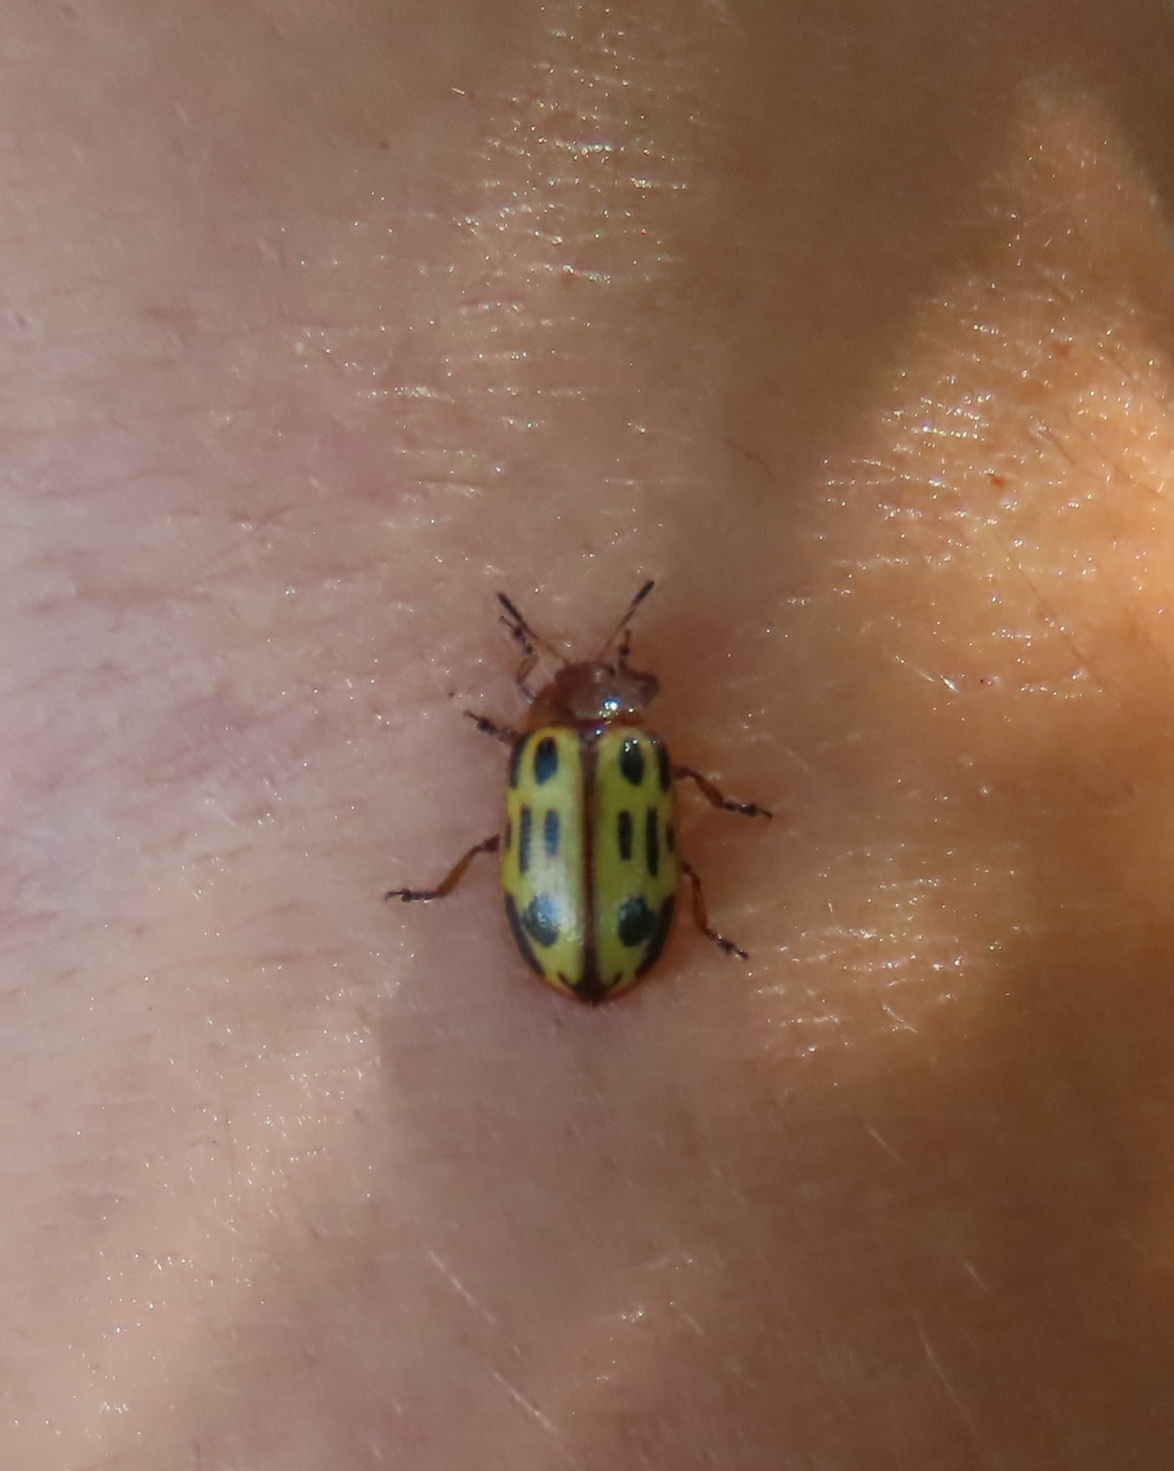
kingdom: Animalia
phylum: Arthropoda
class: Insecta
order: Coleoptera
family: Chrysomelidae
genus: Chrysomela
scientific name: Chrysomela texana
